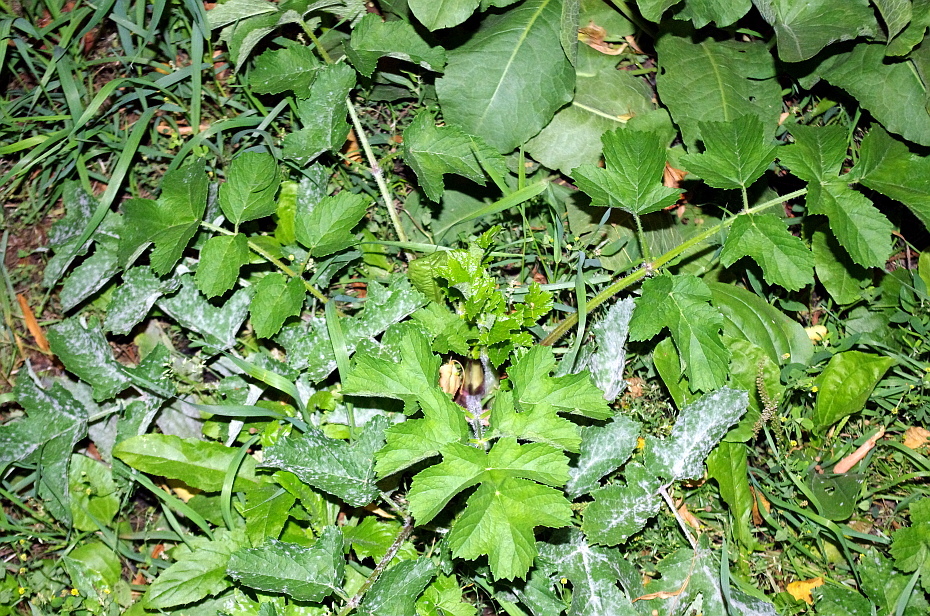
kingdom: Plantae
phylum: Tracheophyta
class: Magnoliopsida
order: Apiales
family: Apiaceae
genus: Heracleum
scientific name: Heracleum sphondylium
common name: Hogweed
